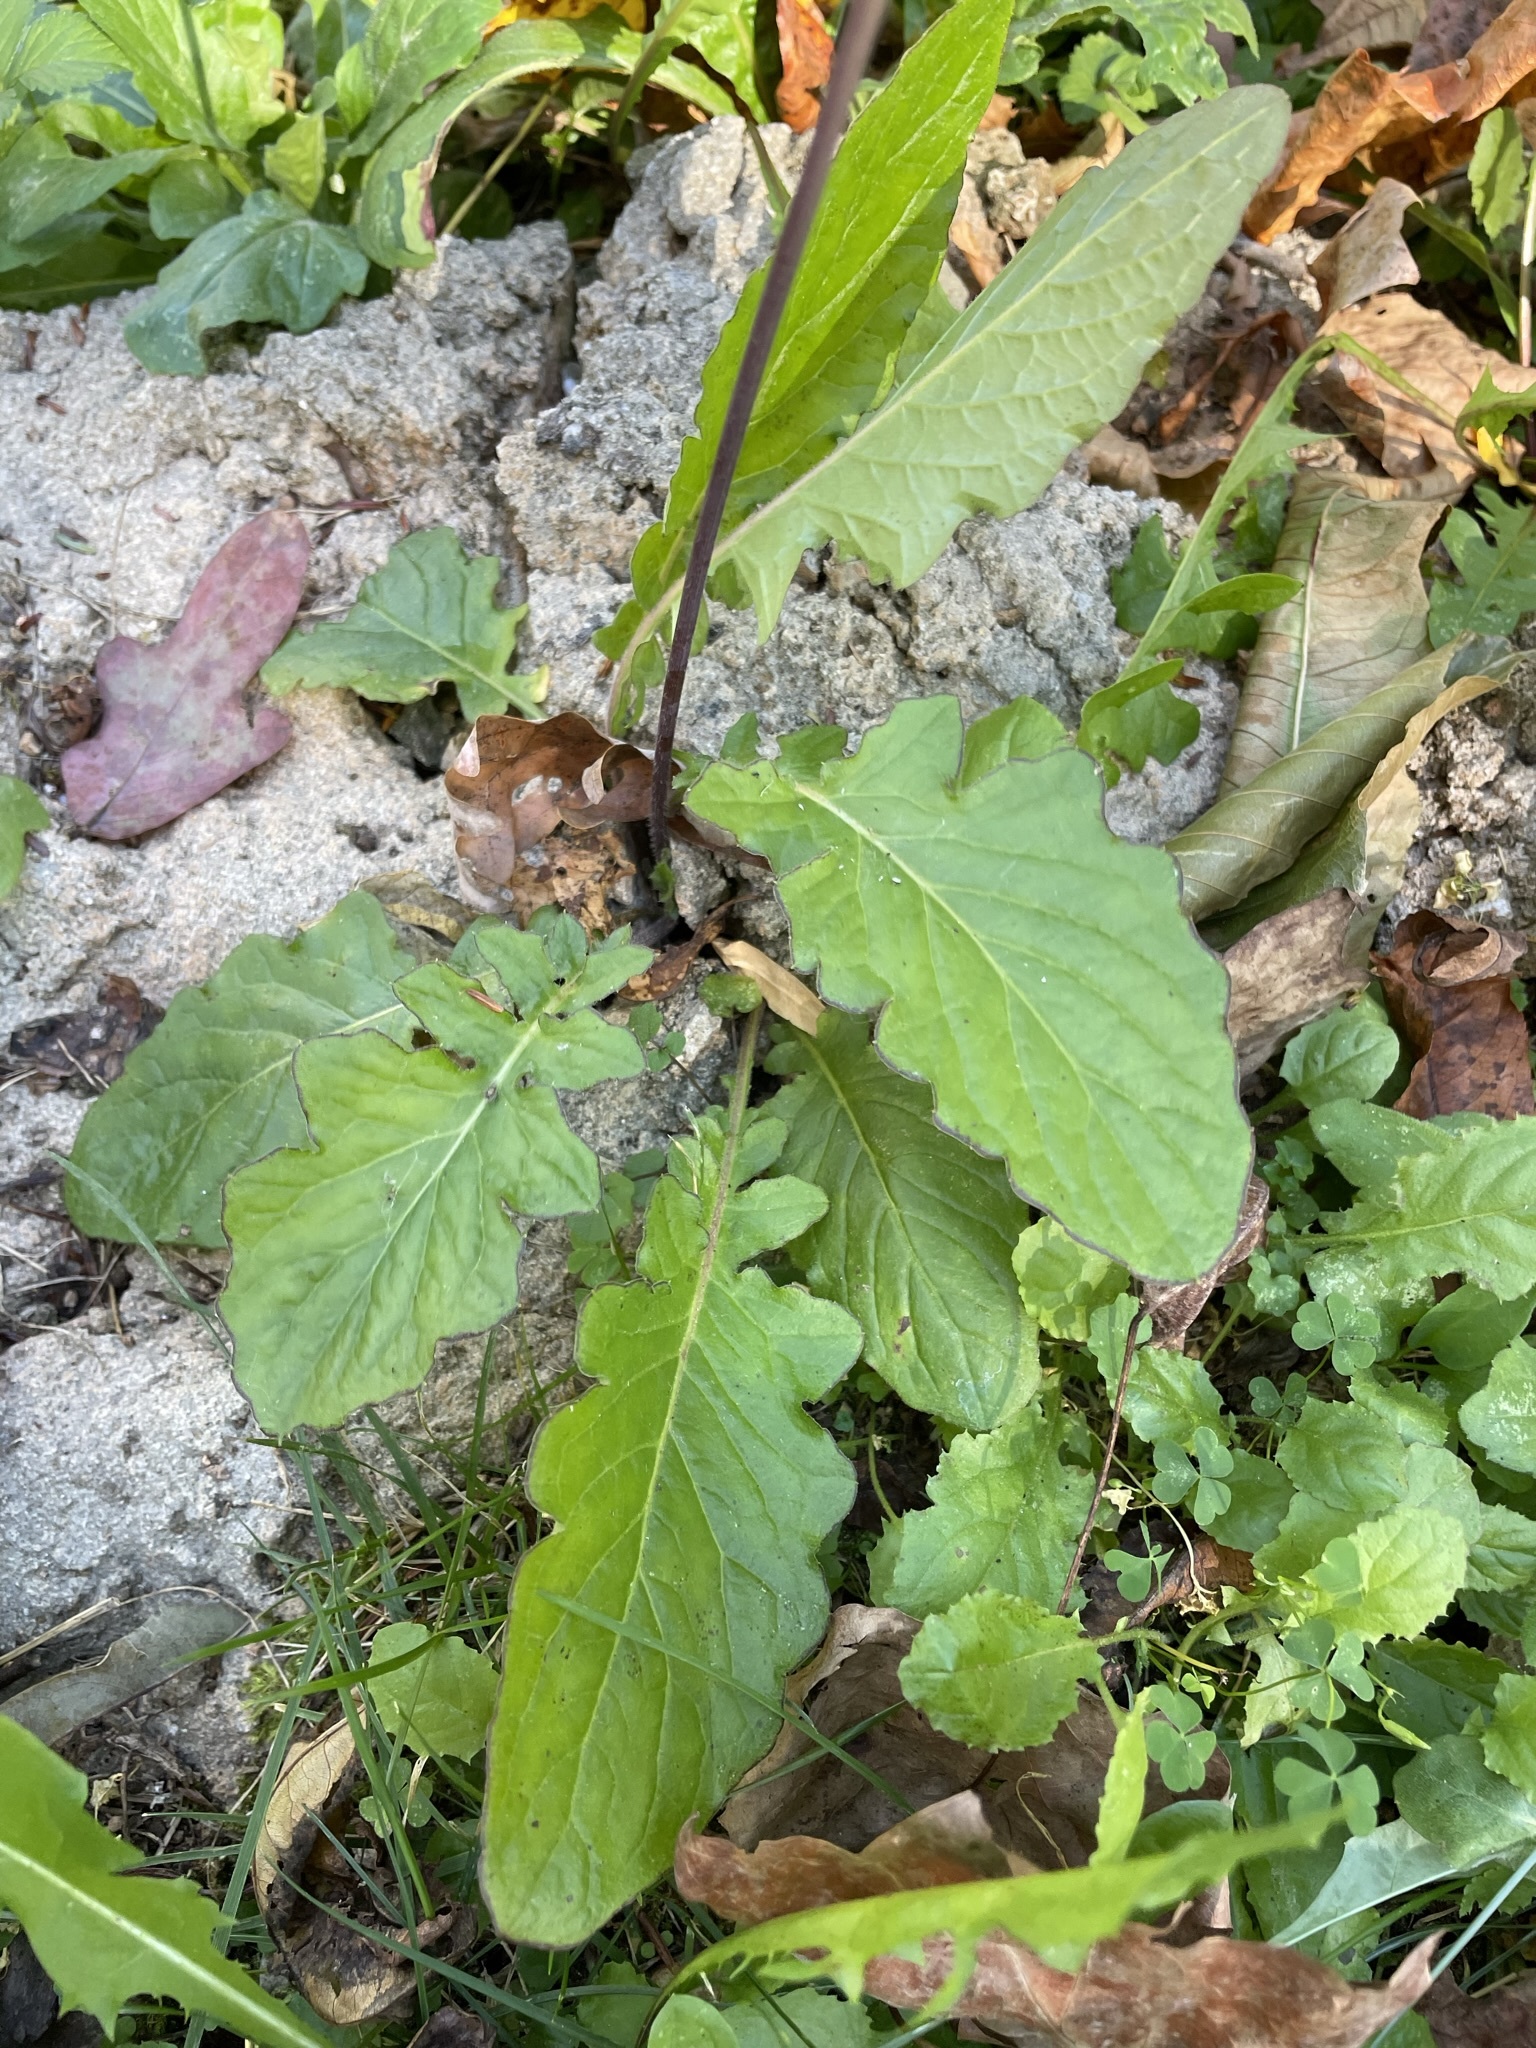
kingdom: Plantae
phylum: Tracheophyta
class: Magnoliopsida
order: Asterales
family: Asteraceae
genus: Youngia
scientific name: Youngia japonica
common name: Oriental false hawksbeard
